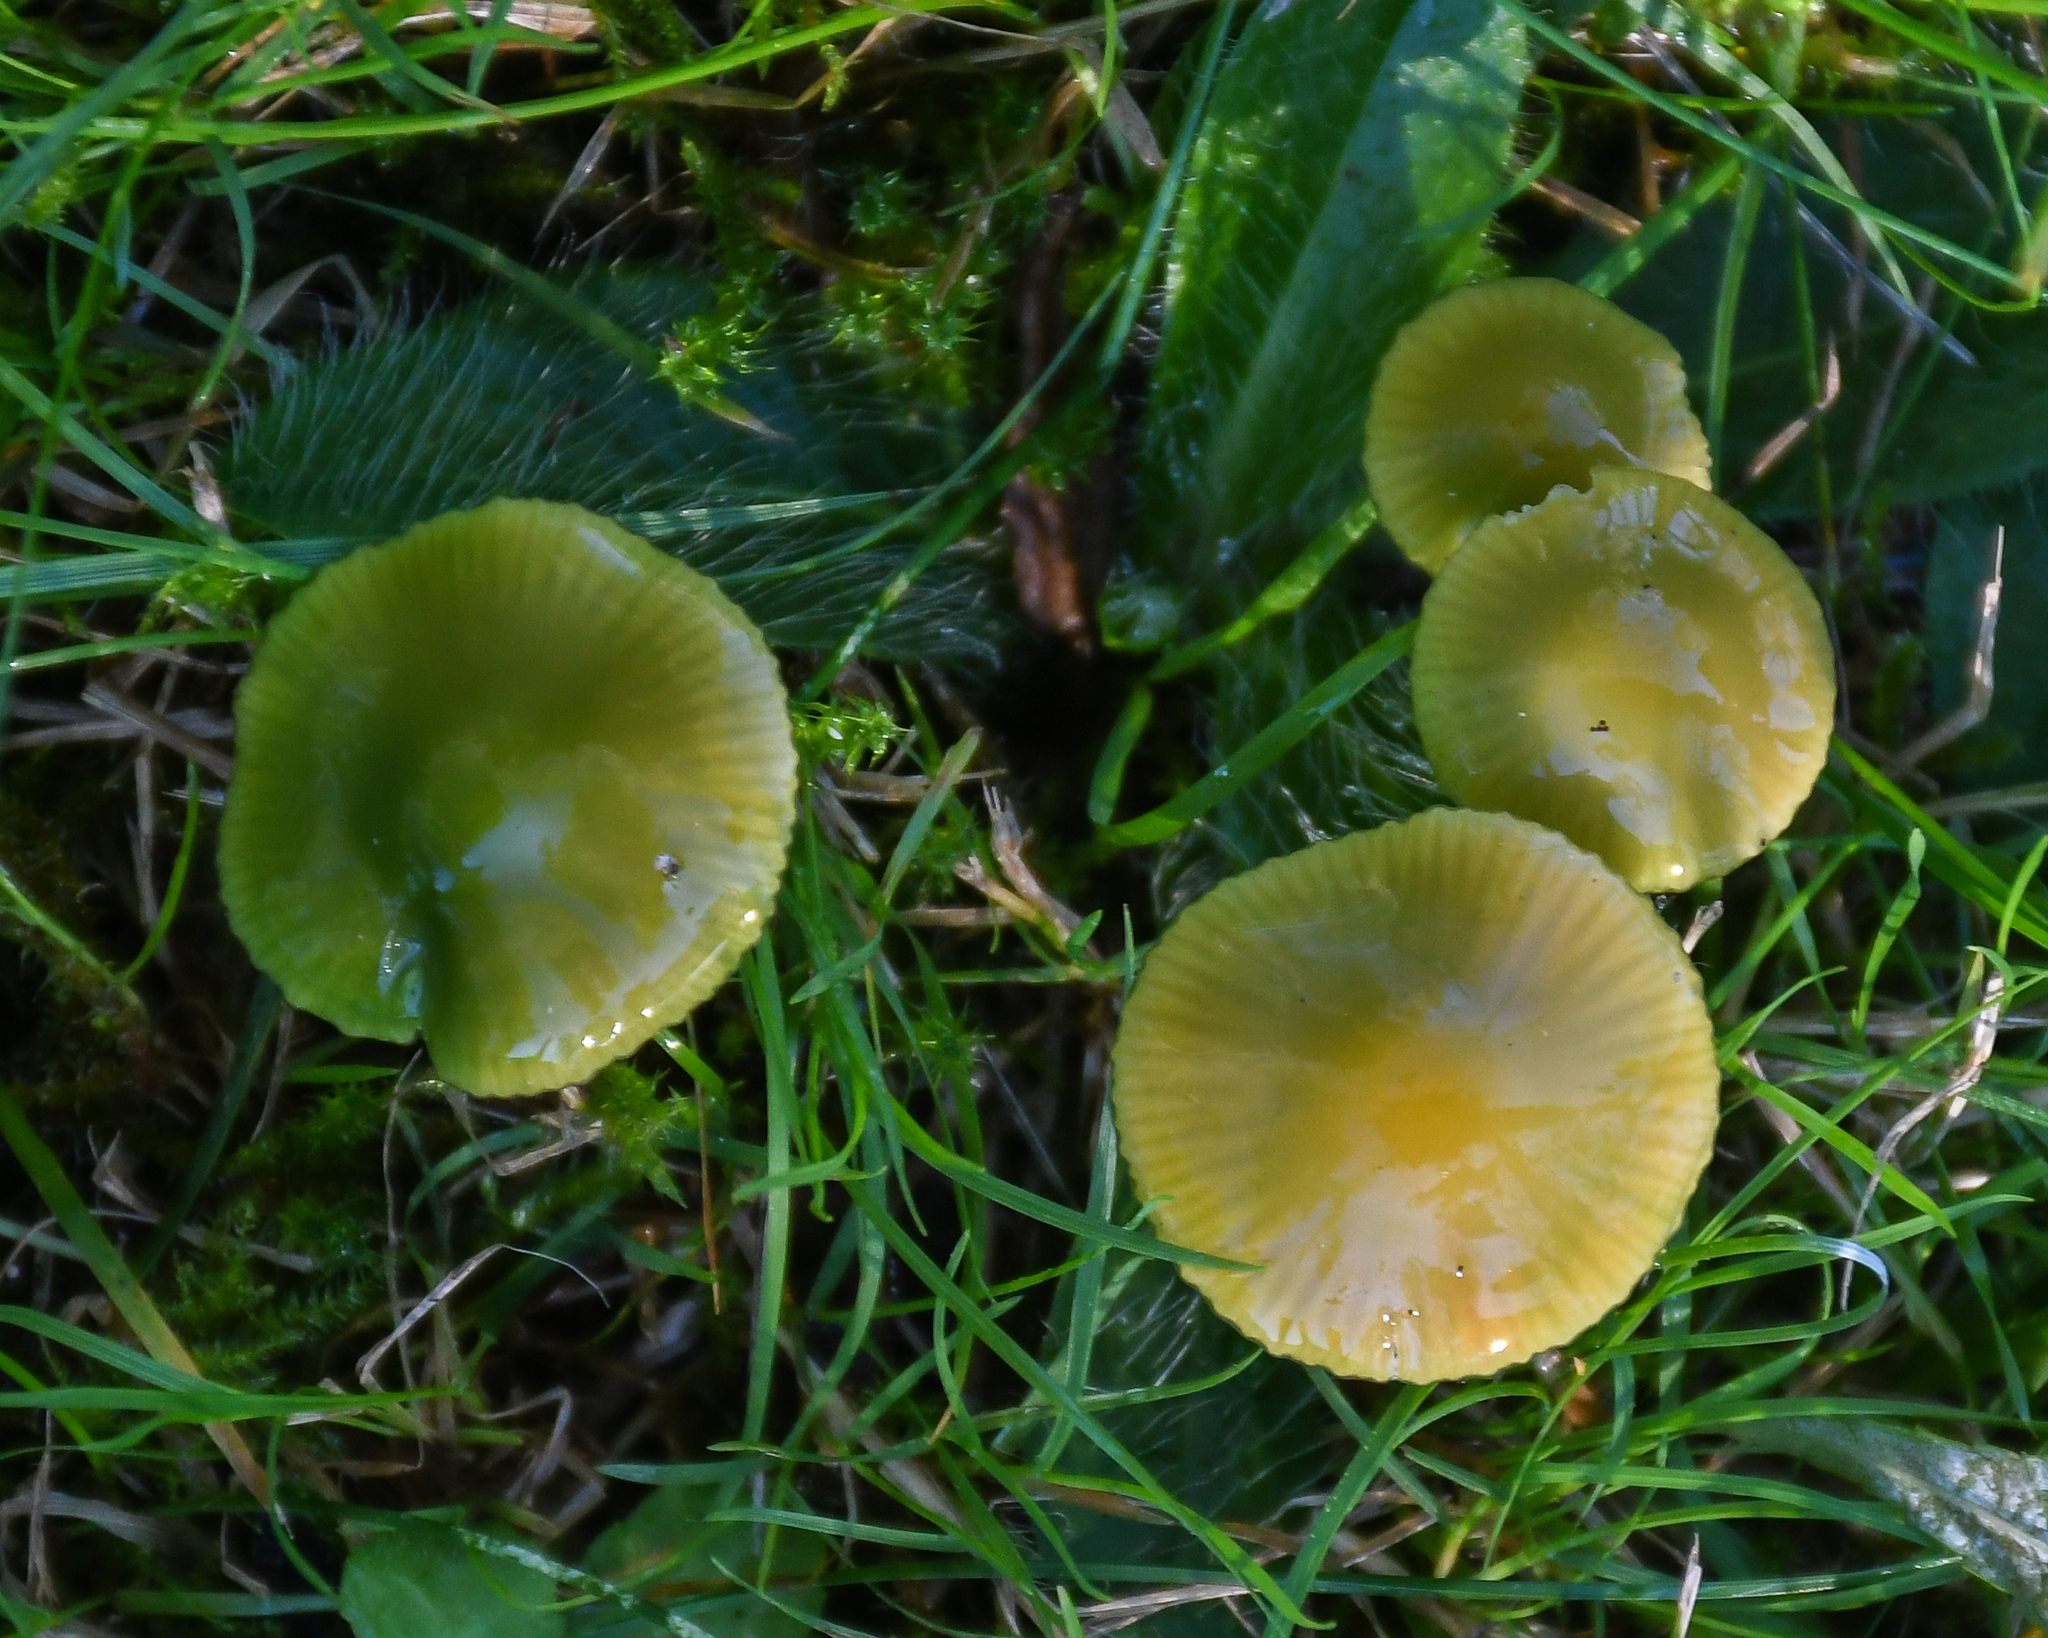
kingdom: Fungi
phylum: Basidiomycota
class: Agaricomycetes
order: Agaricales
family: Hygrophoraceae
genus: Gliophorus
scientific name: Gliophorus psittacinus
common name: Parrot wax-cap
